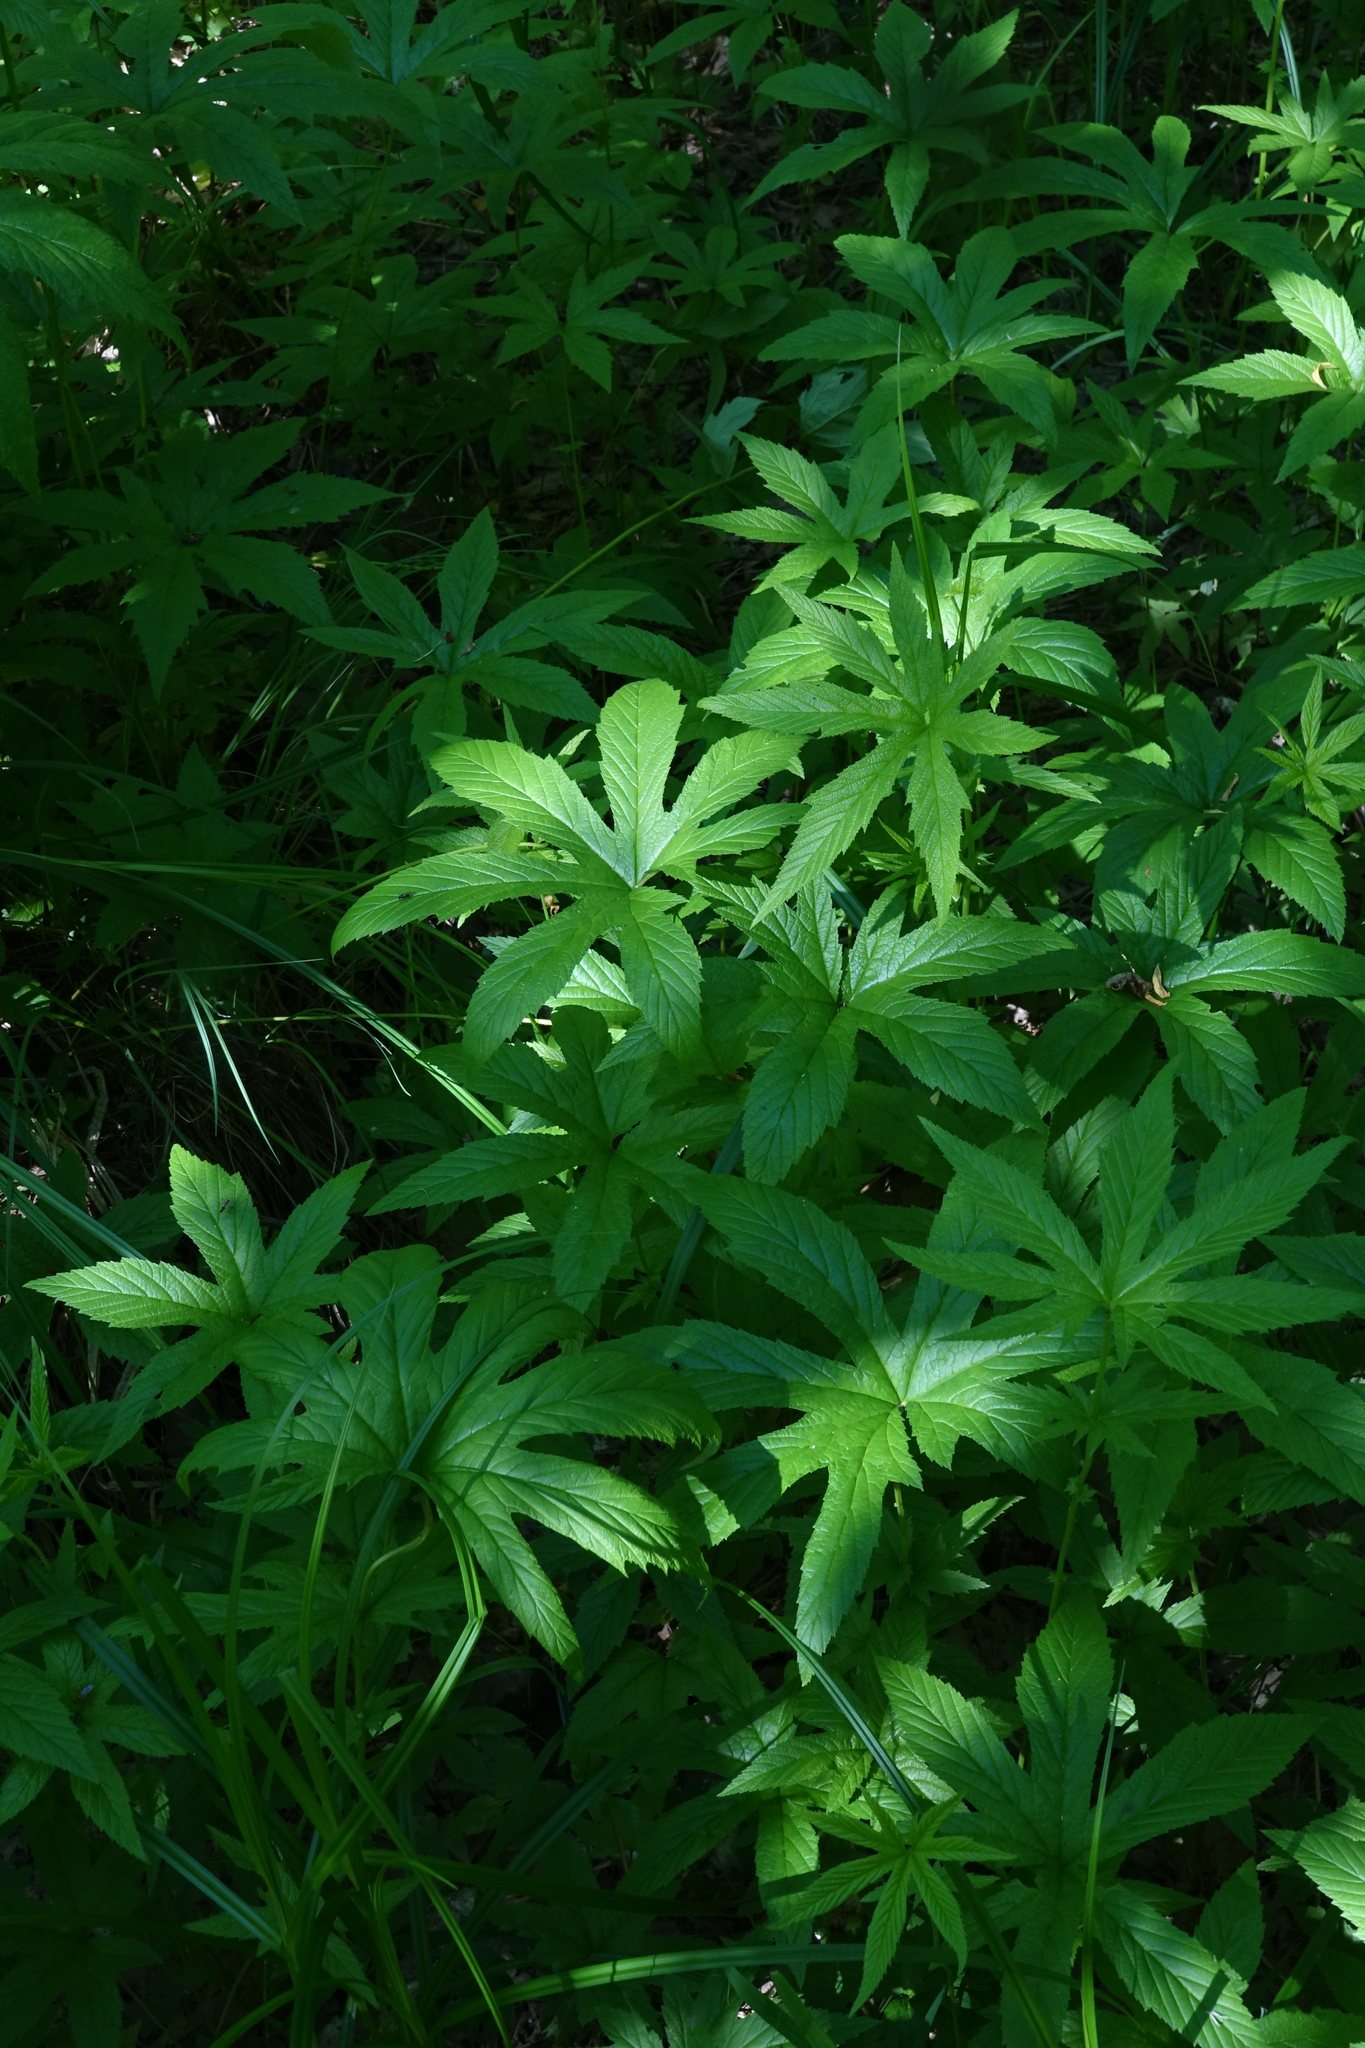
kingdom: Plantae
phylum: Tracheophyta
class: Magnoliopsida
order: Rosales
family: Rosaceae
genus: Filipendula
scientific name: Filipendula digitata
